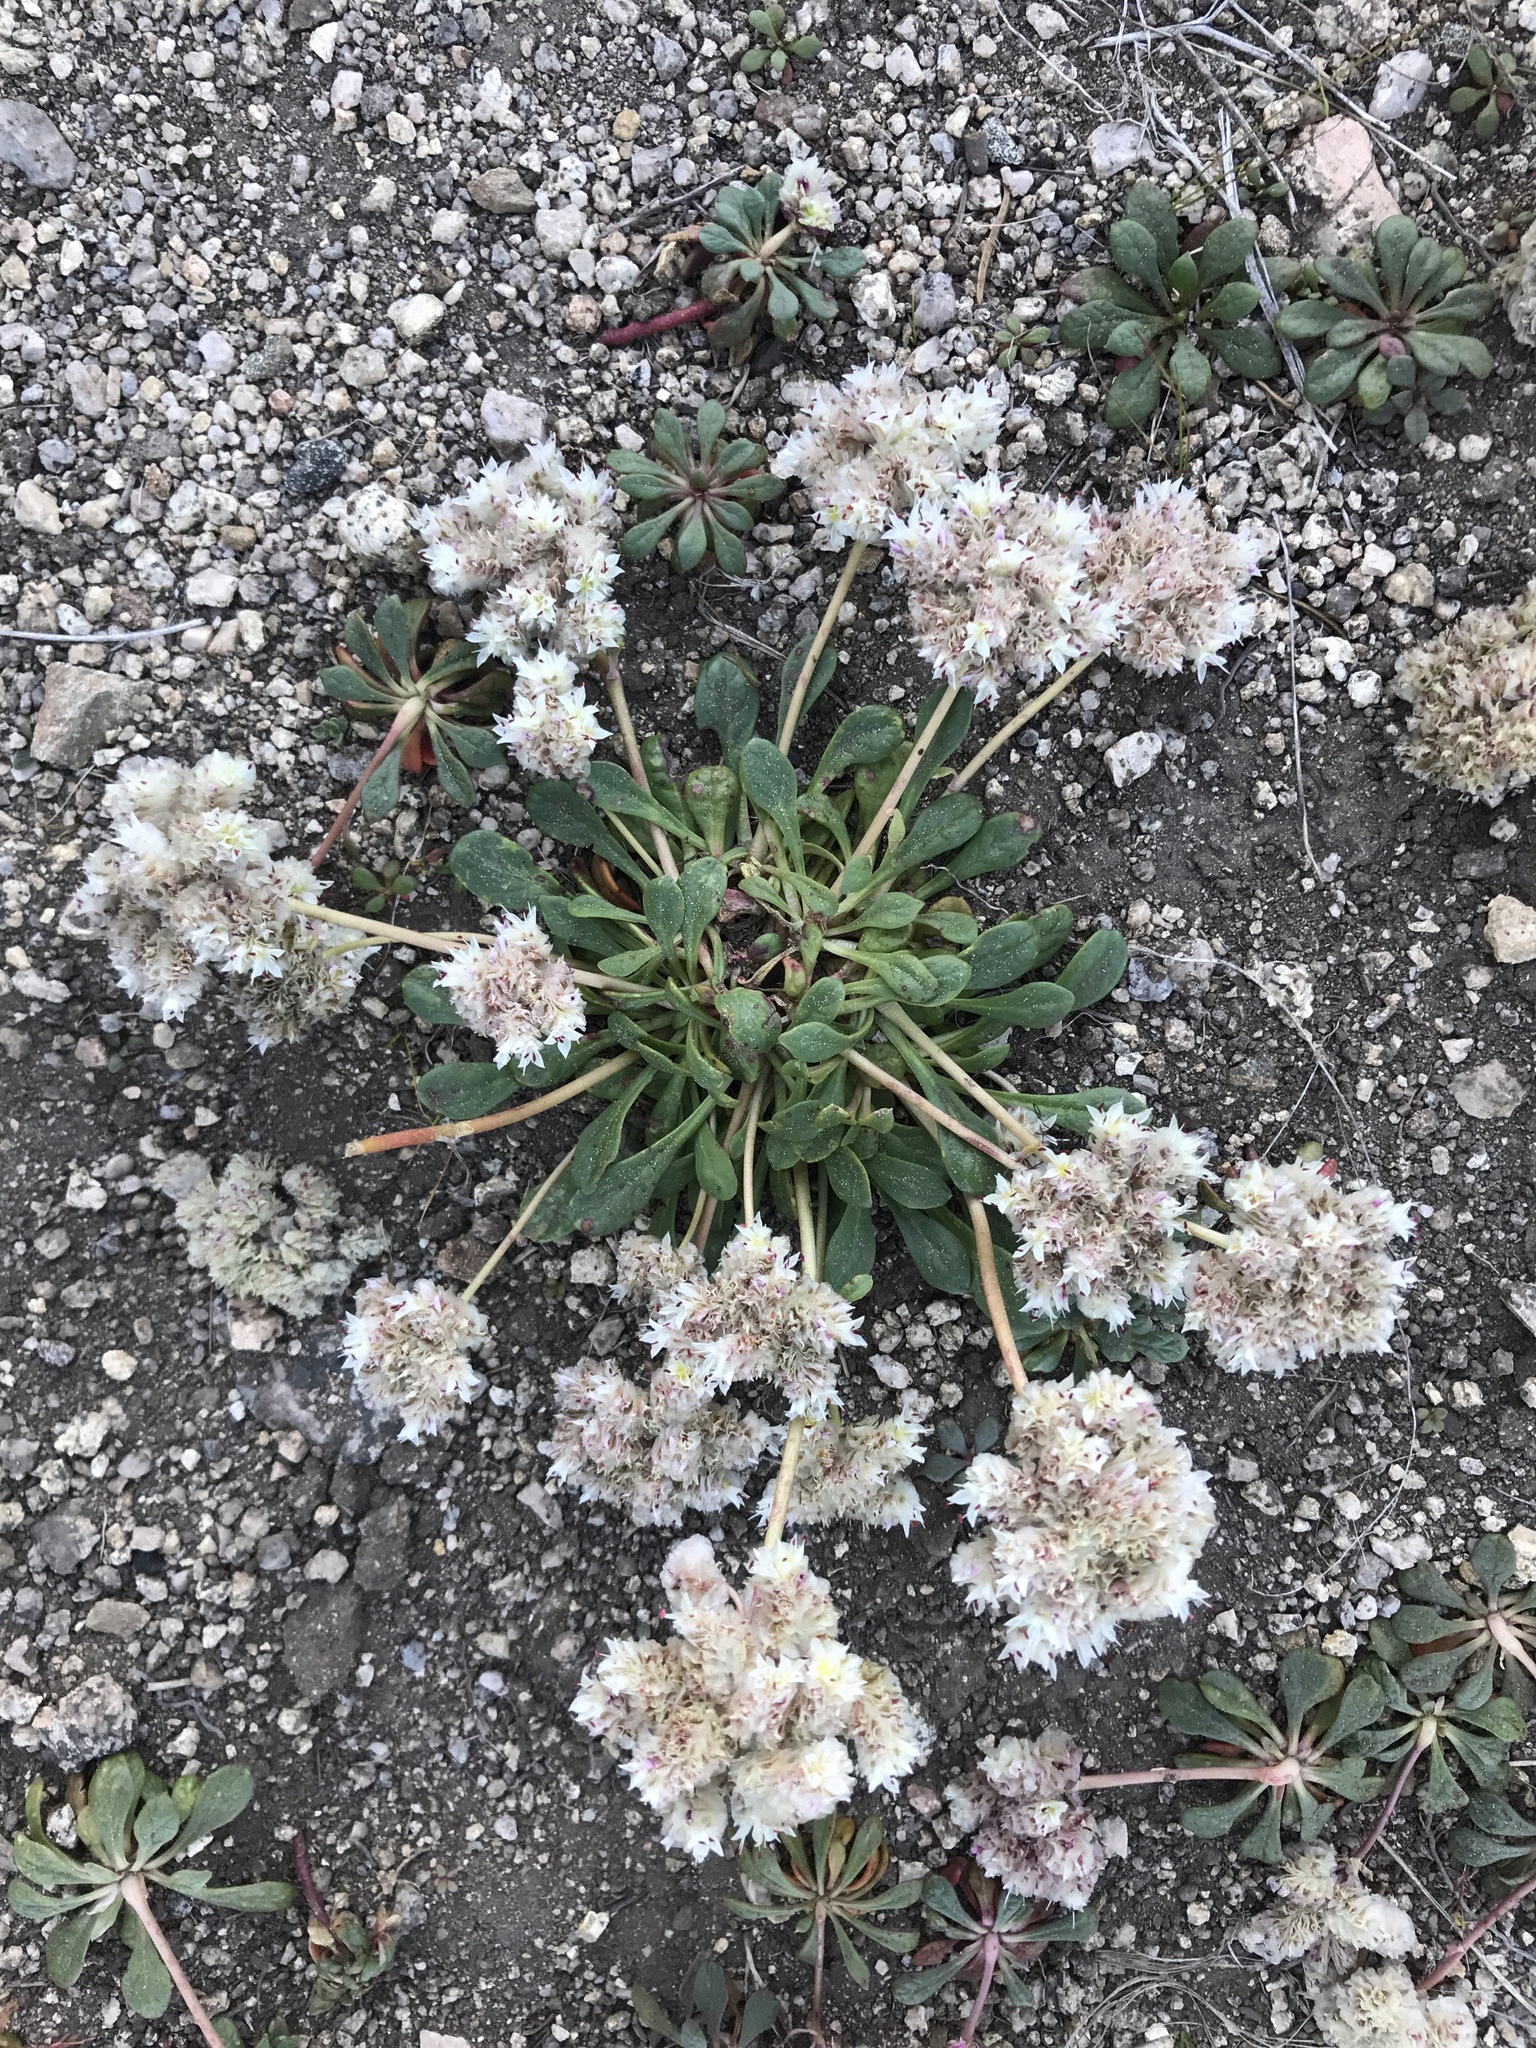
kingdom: Plantae
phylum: Tracheophyta
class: Magnoliopsida
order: Caryophyllales
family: Montiaceae
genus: Calyptridium
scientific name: Calyptridium umbellatum
